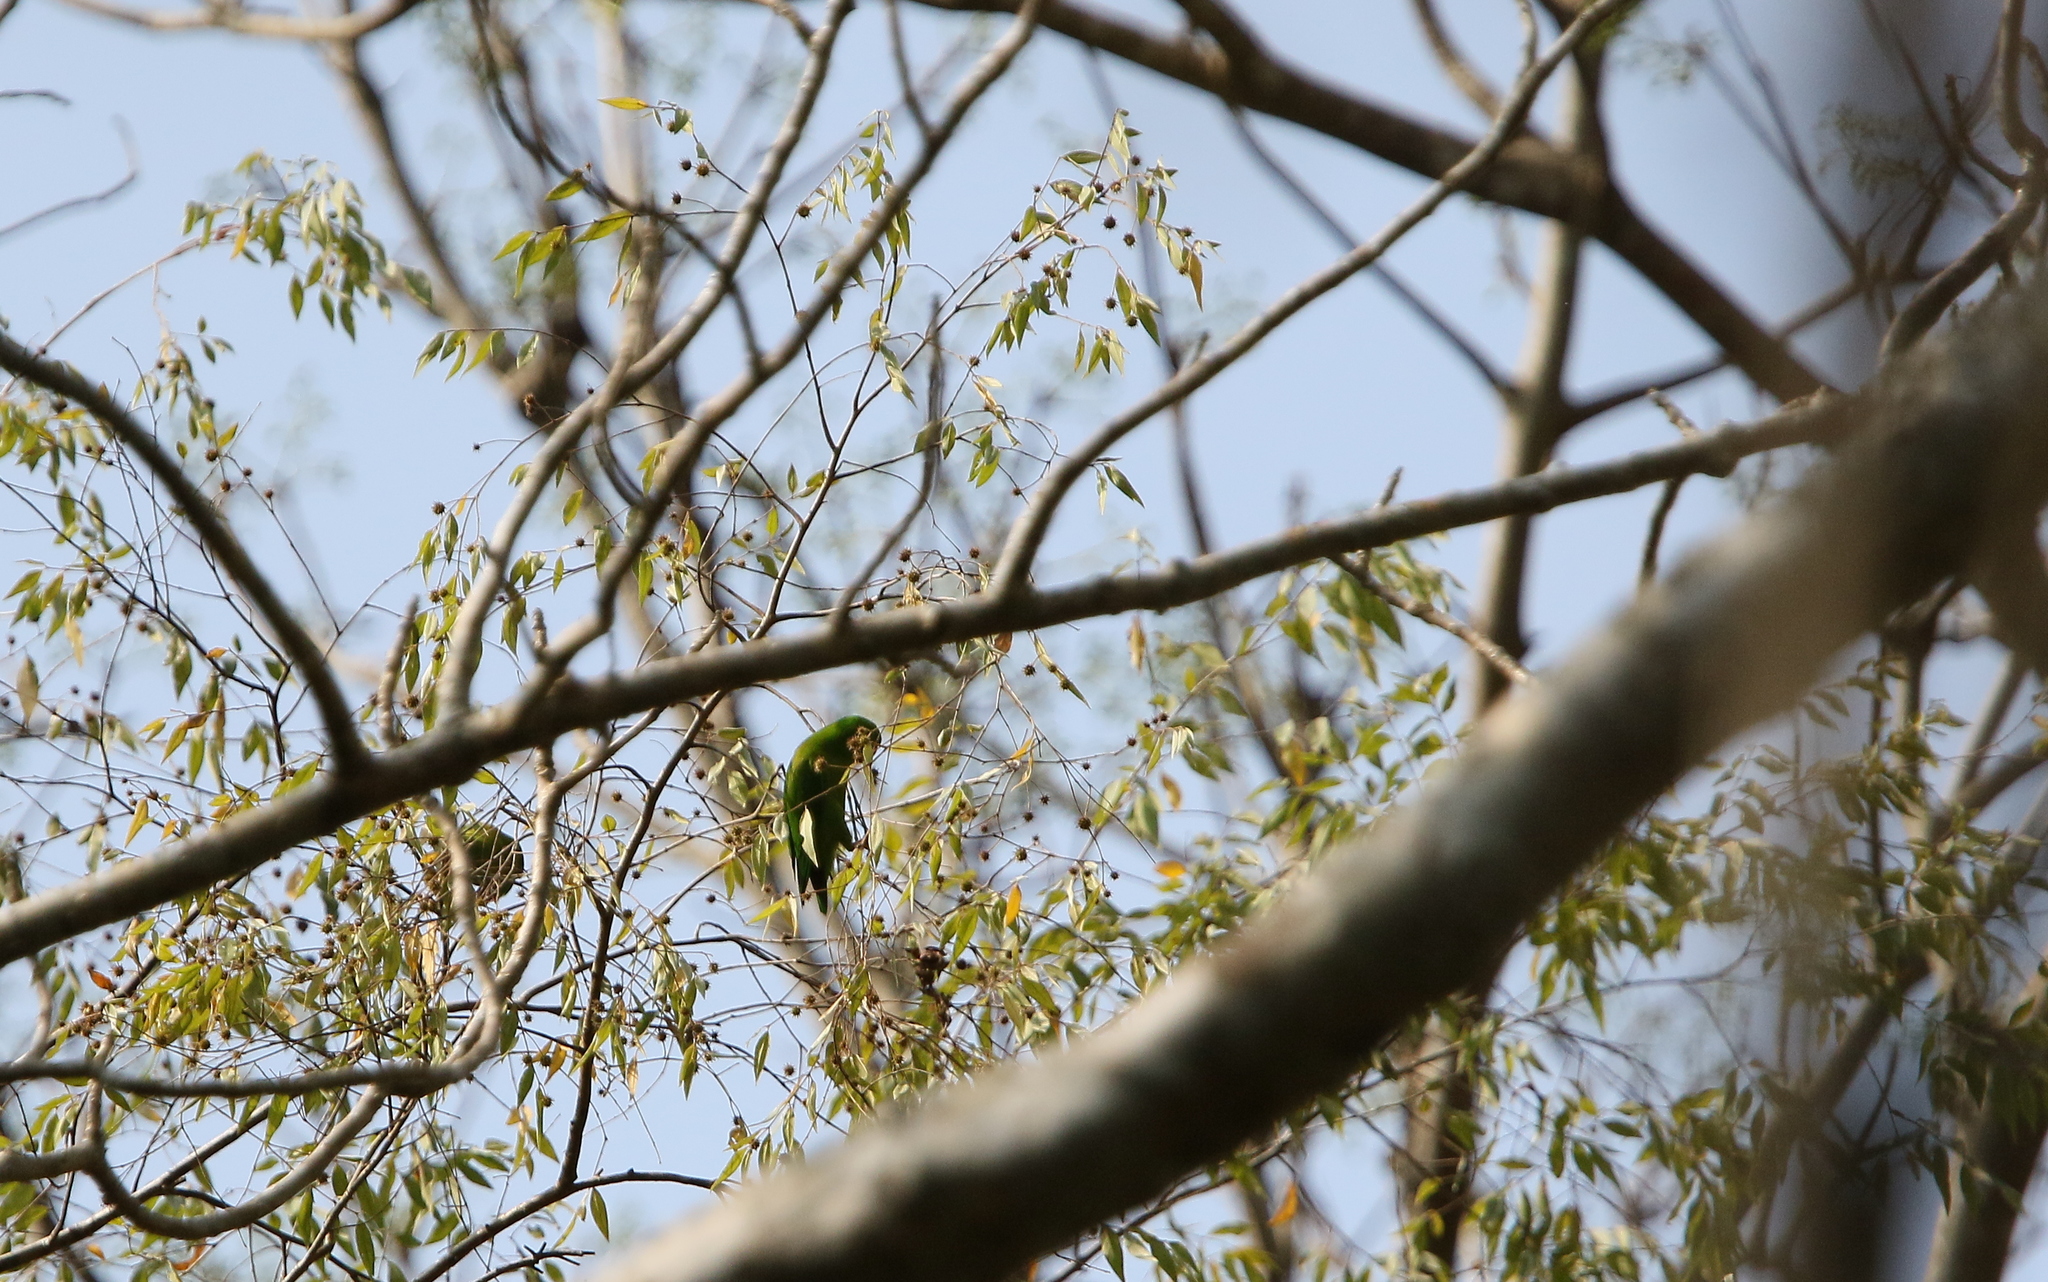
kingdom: Animalia
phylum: Chordata
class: Aves
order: Psittaciformes
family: Psittacidae
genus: Loriculus
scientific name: Loriculus vernalis
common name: Vernal hanging parrot
